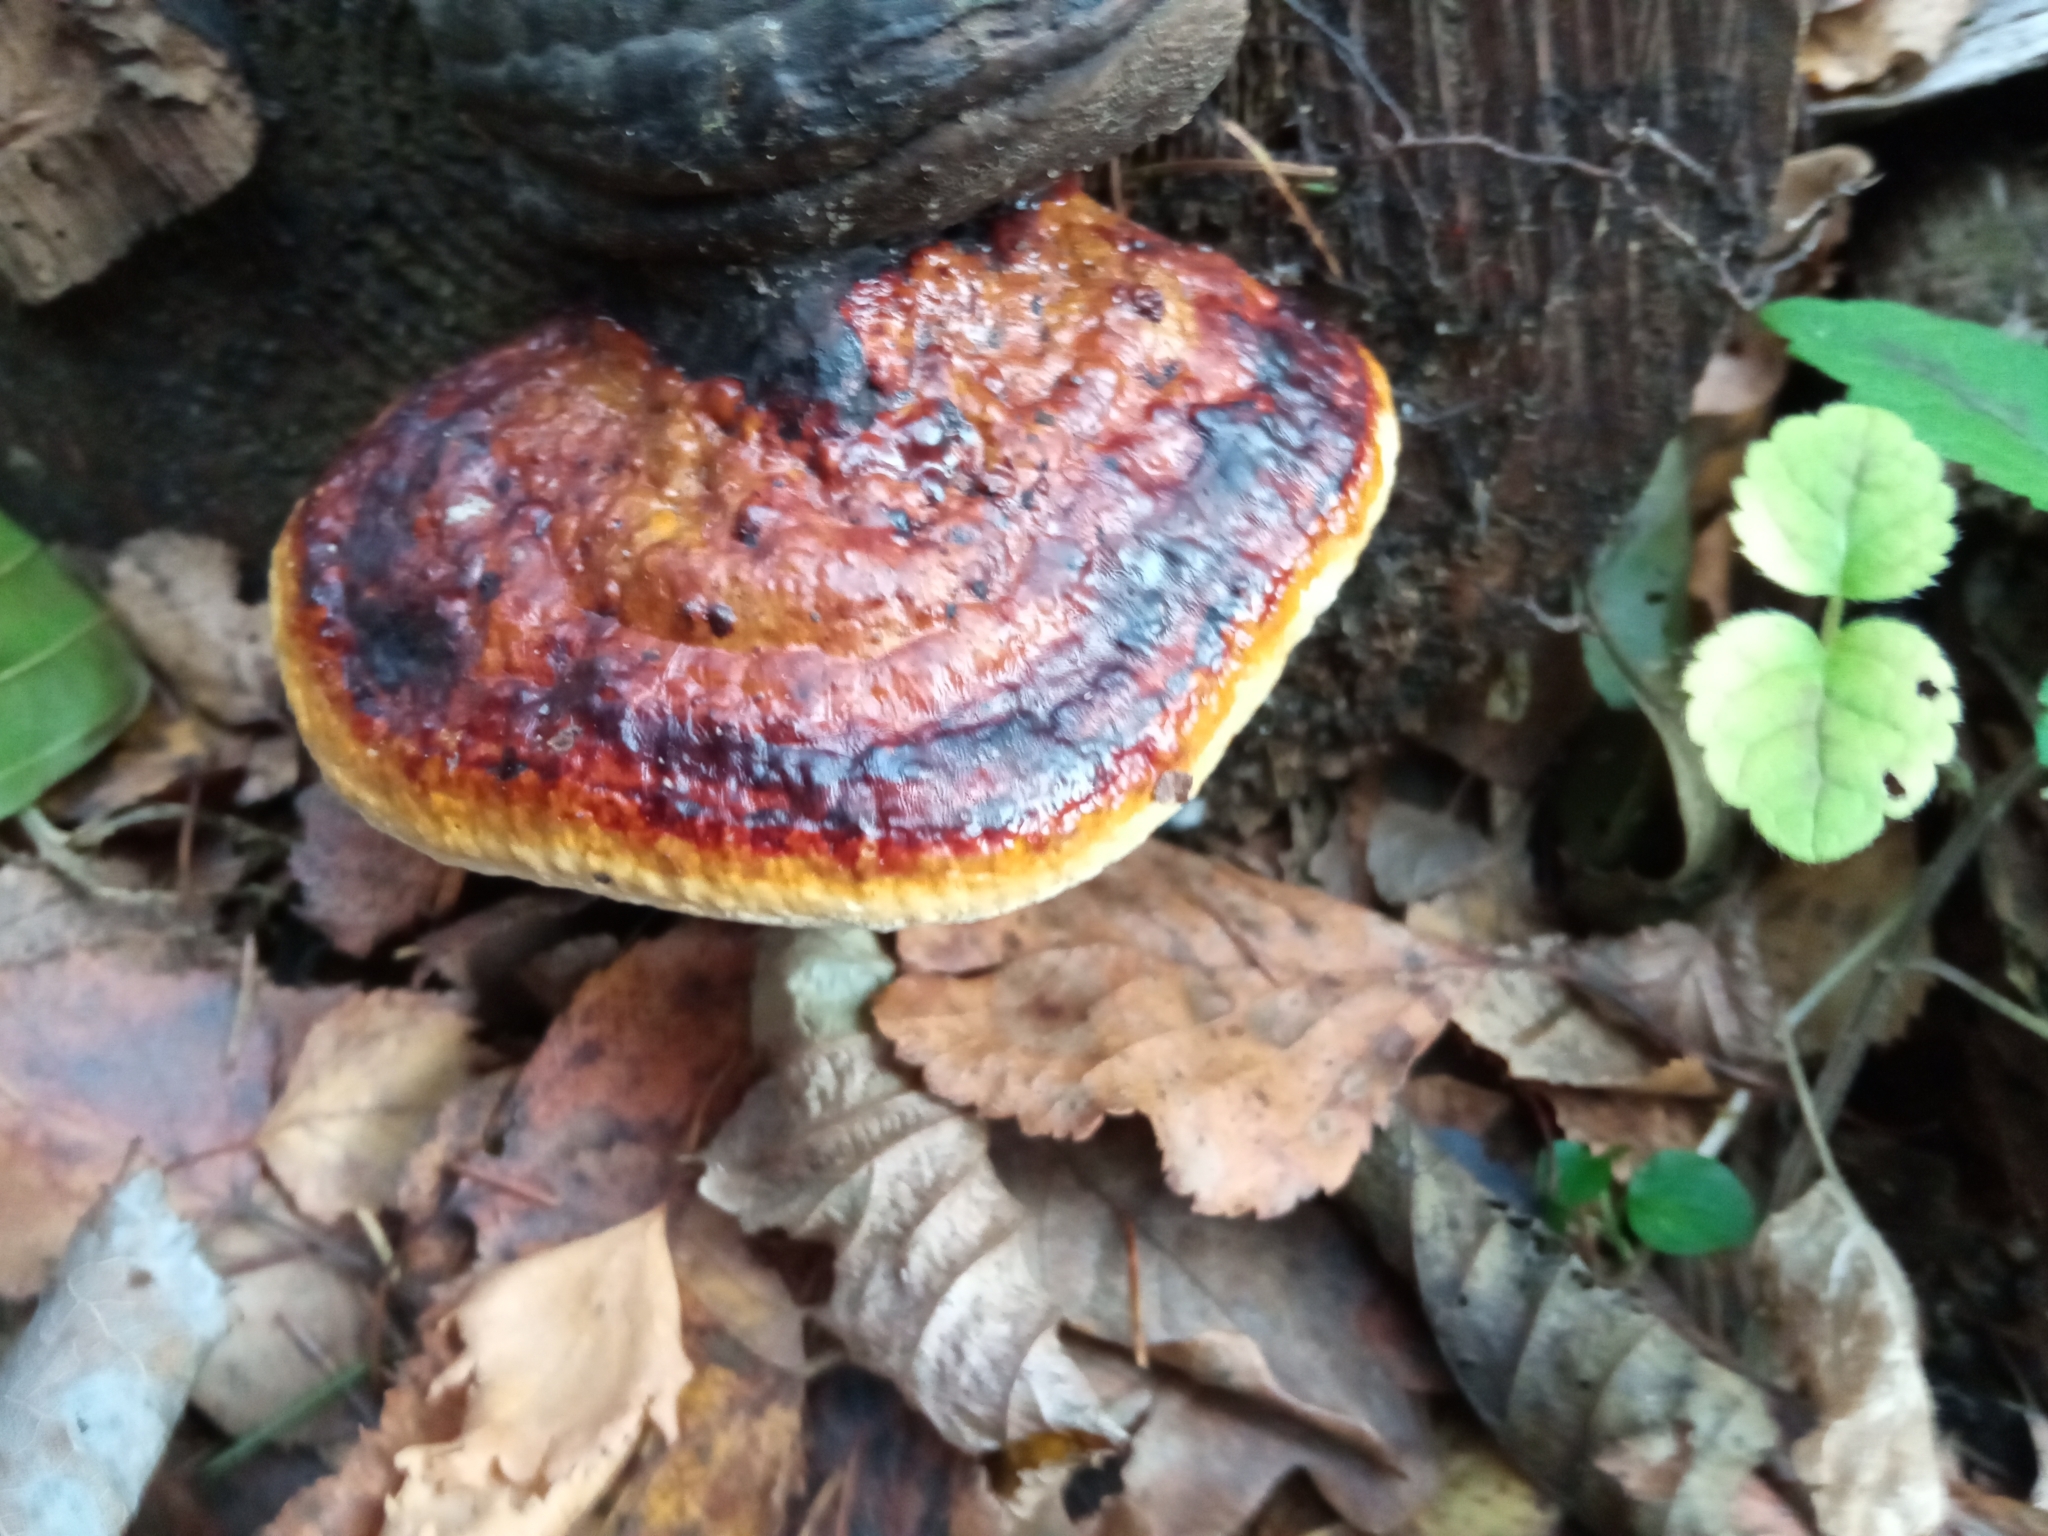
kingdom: Fungi
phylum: Basidiomycota
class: Agaricomycetes
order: Polyporales
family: Fomitopsidaceae
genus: Fomitopsis
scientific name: Fomitopsis pinicola
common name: Red-belted bracket
